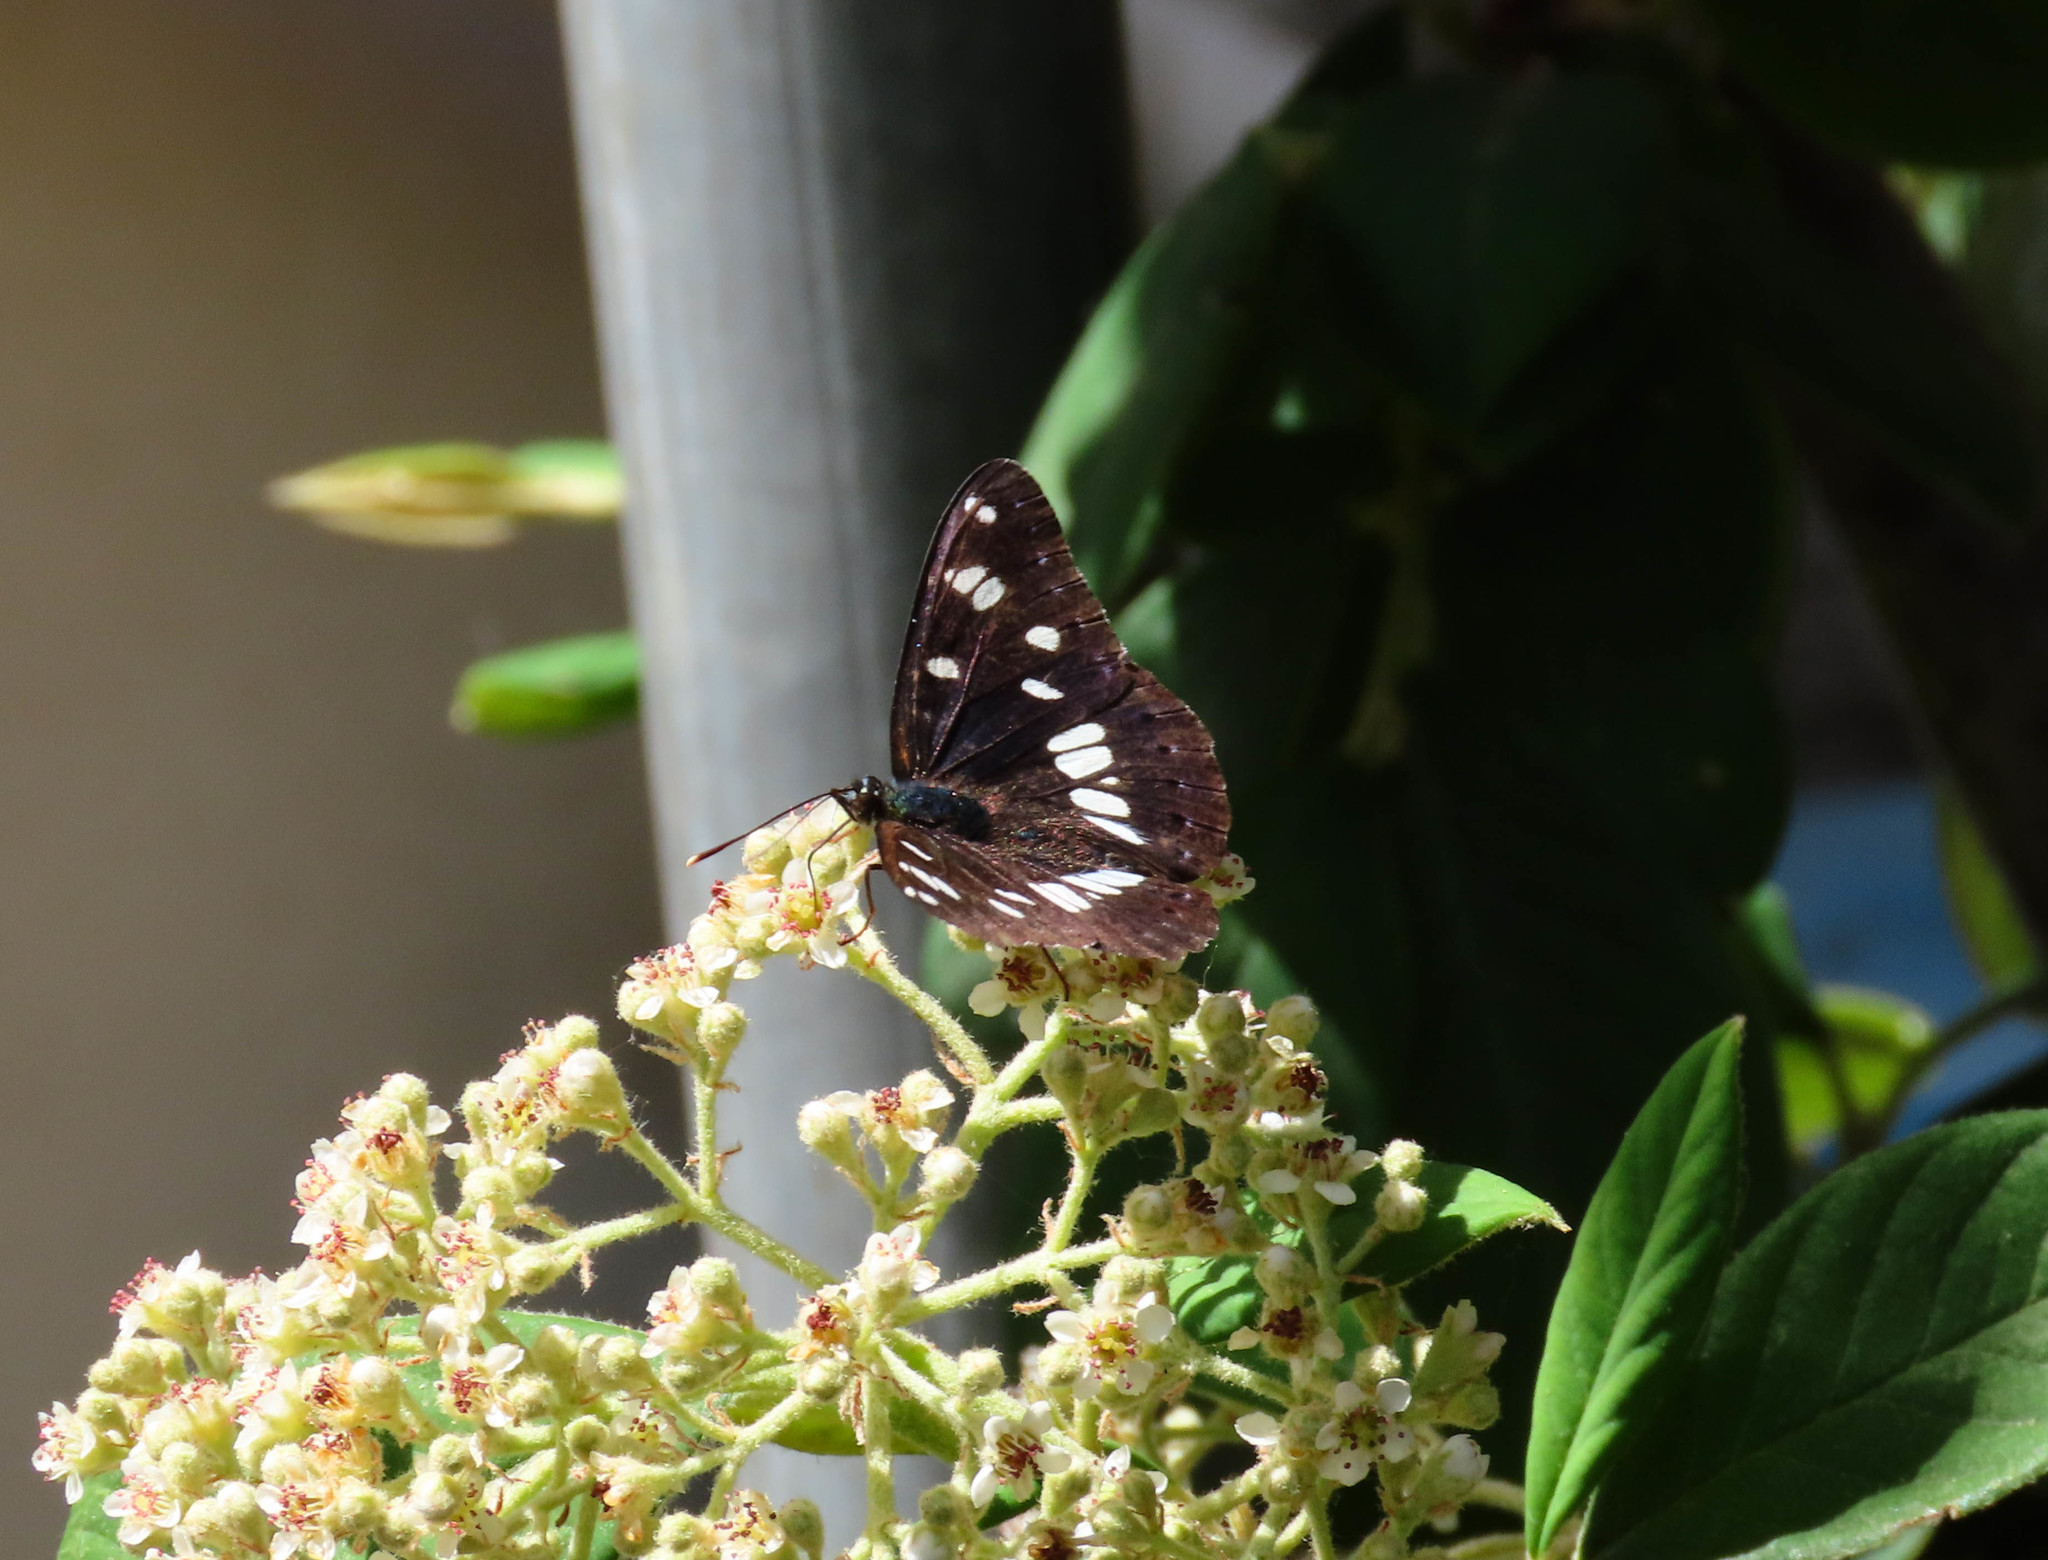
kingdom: Animalia
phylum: Arthropoda
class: Insecta
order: Lepidoptera
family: Nymphalidae
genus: Limenitis
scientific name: Limenitis reducta
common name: Southern white admiral
